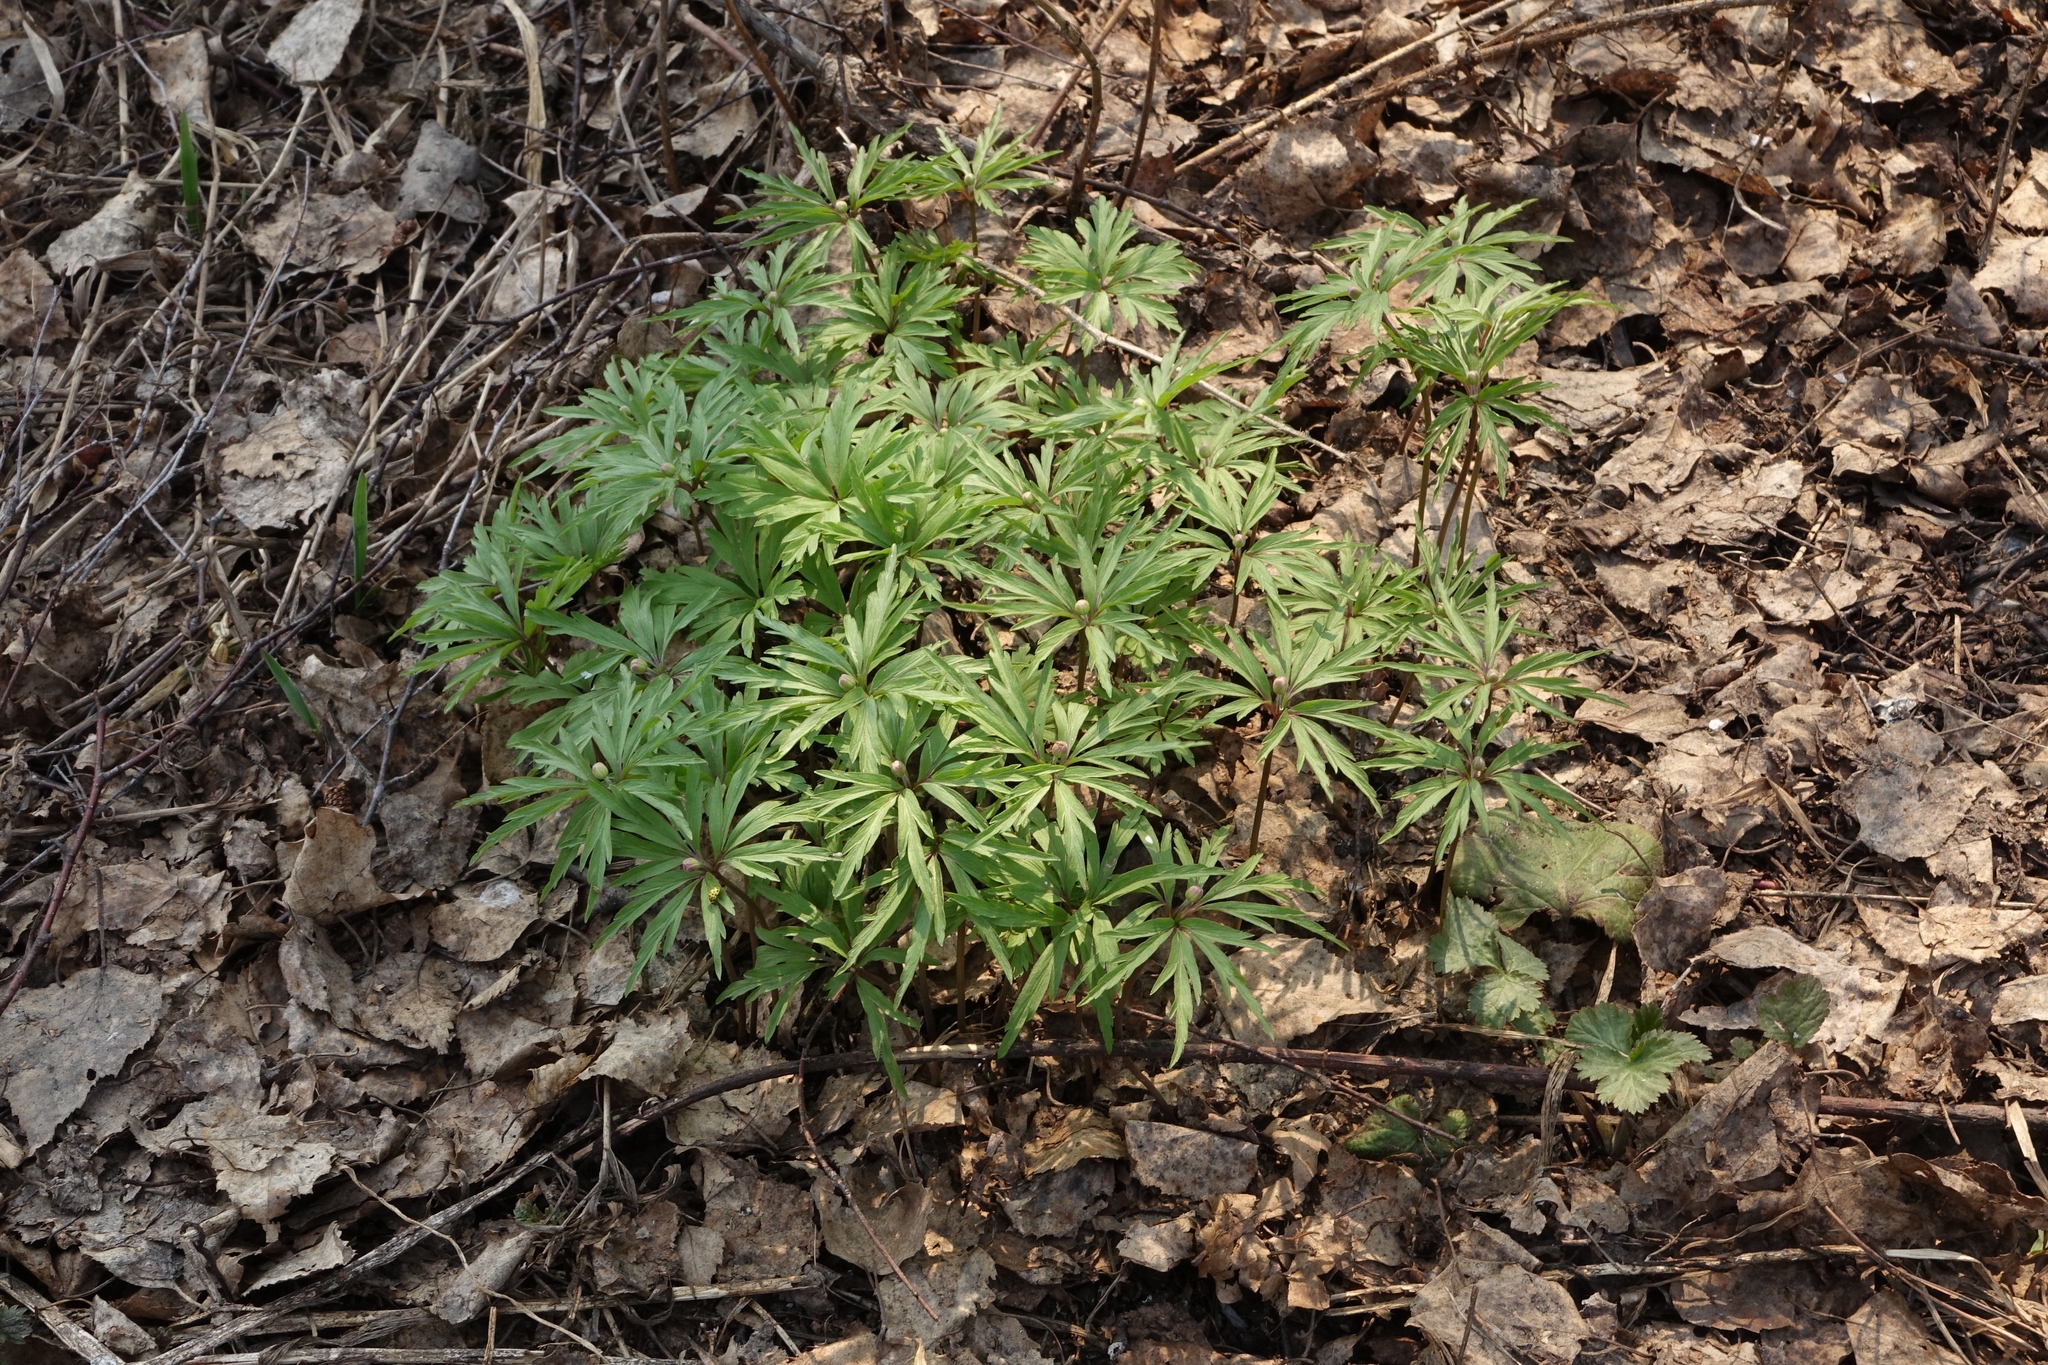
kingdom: Plantae
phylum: Tracheophyta
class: Magnoliopsida
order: Ranunculales
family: Ranunculaceae
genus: Anemone
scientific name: Anemone caerulea
